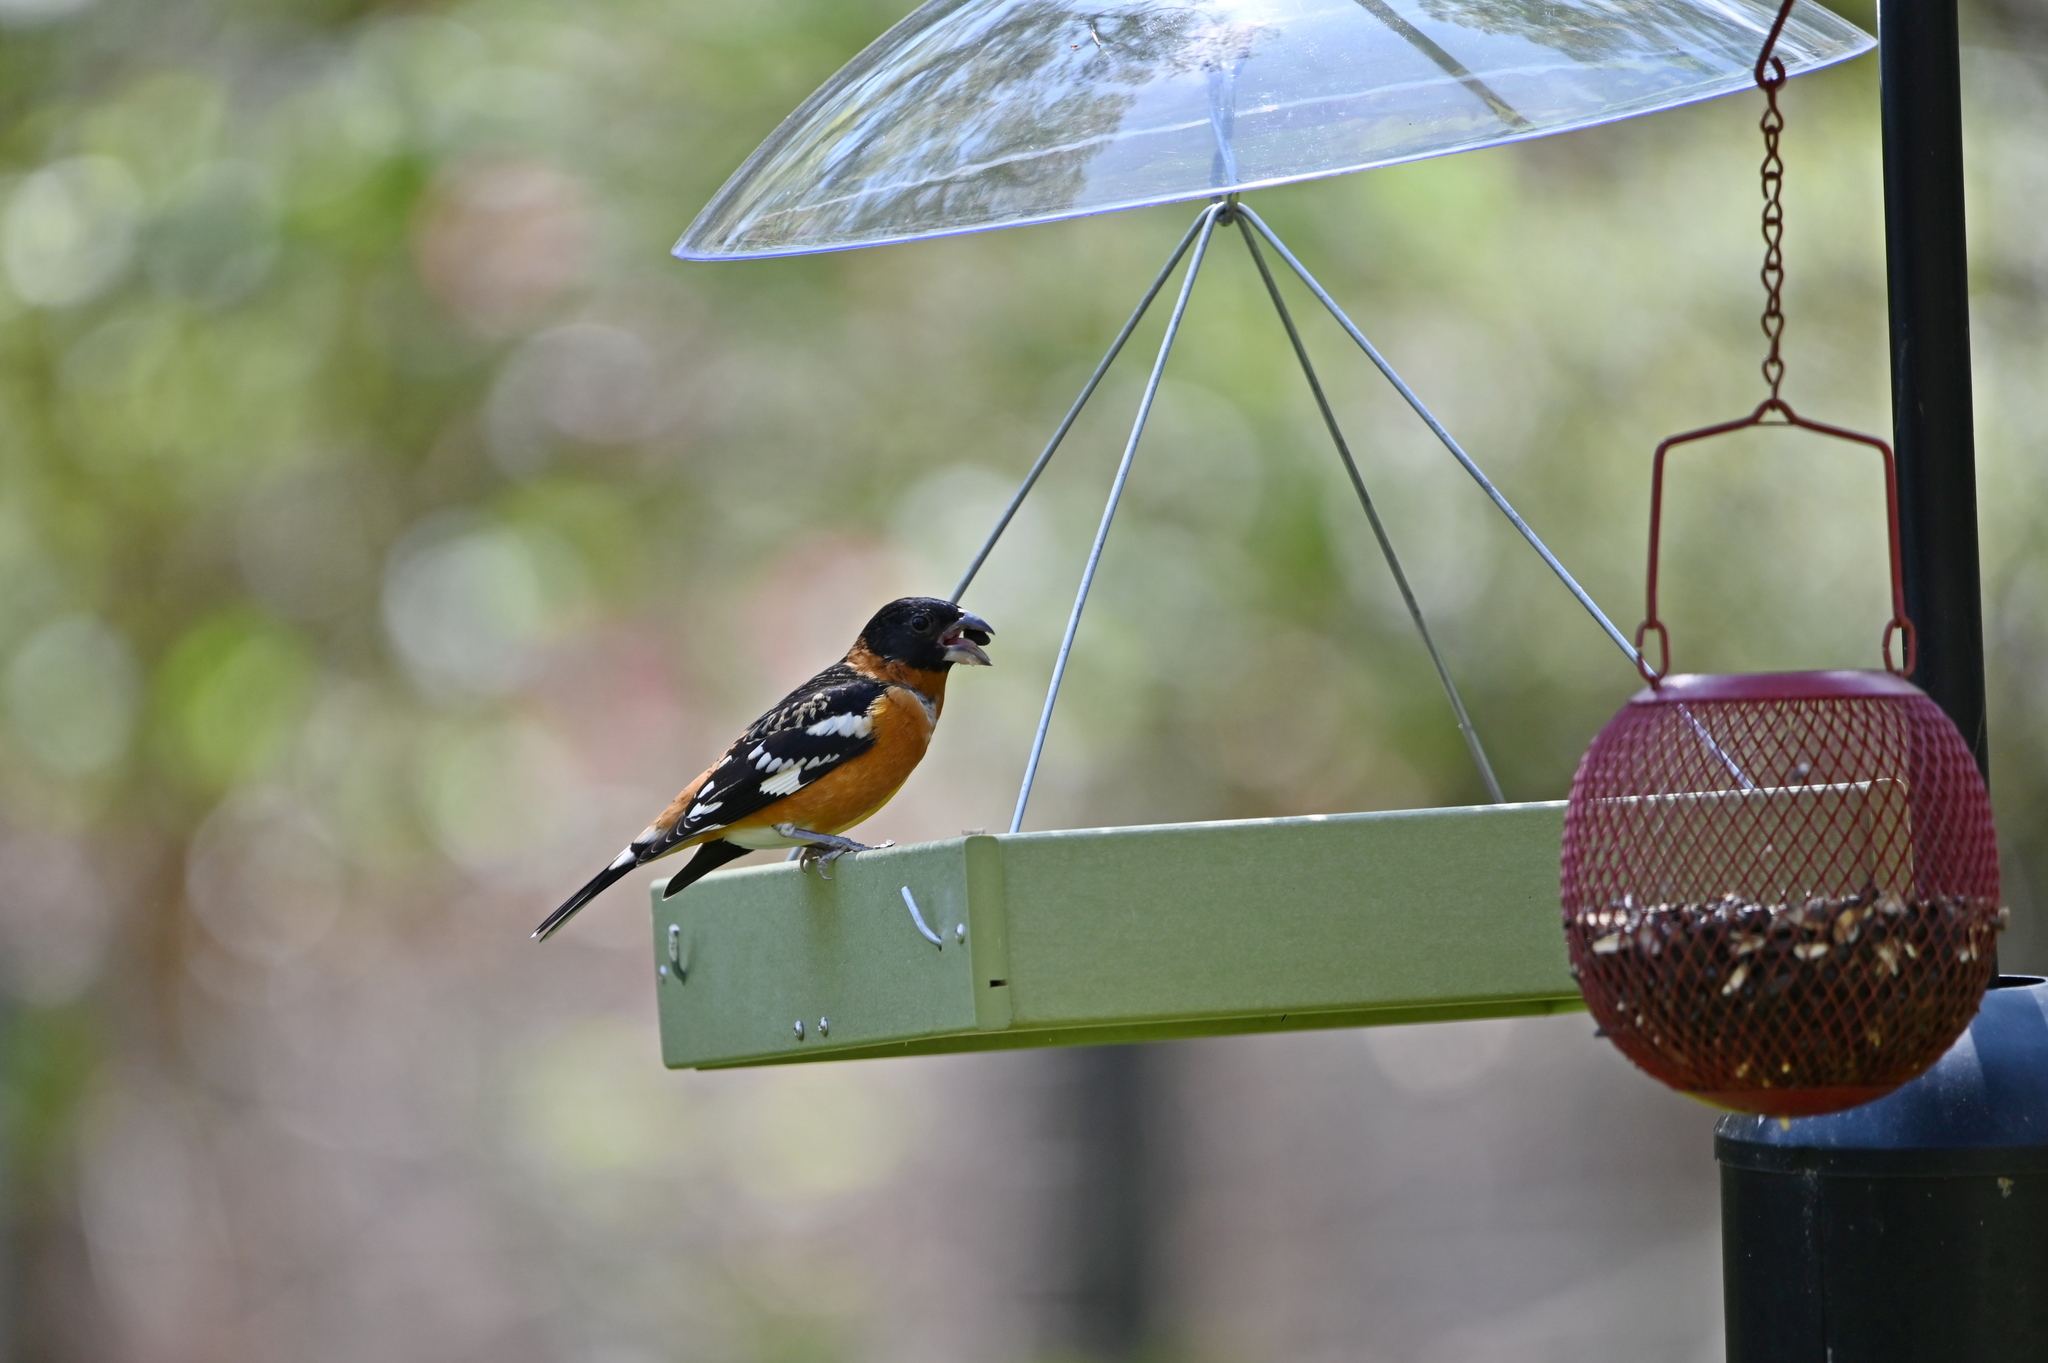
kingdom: Animalia
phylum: Chordata
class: Aves
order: Passeriformes
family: Cardinalidae
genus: Pheucticus
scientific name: Pheucticus melanocephalus
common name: Black-headed grosbeak
